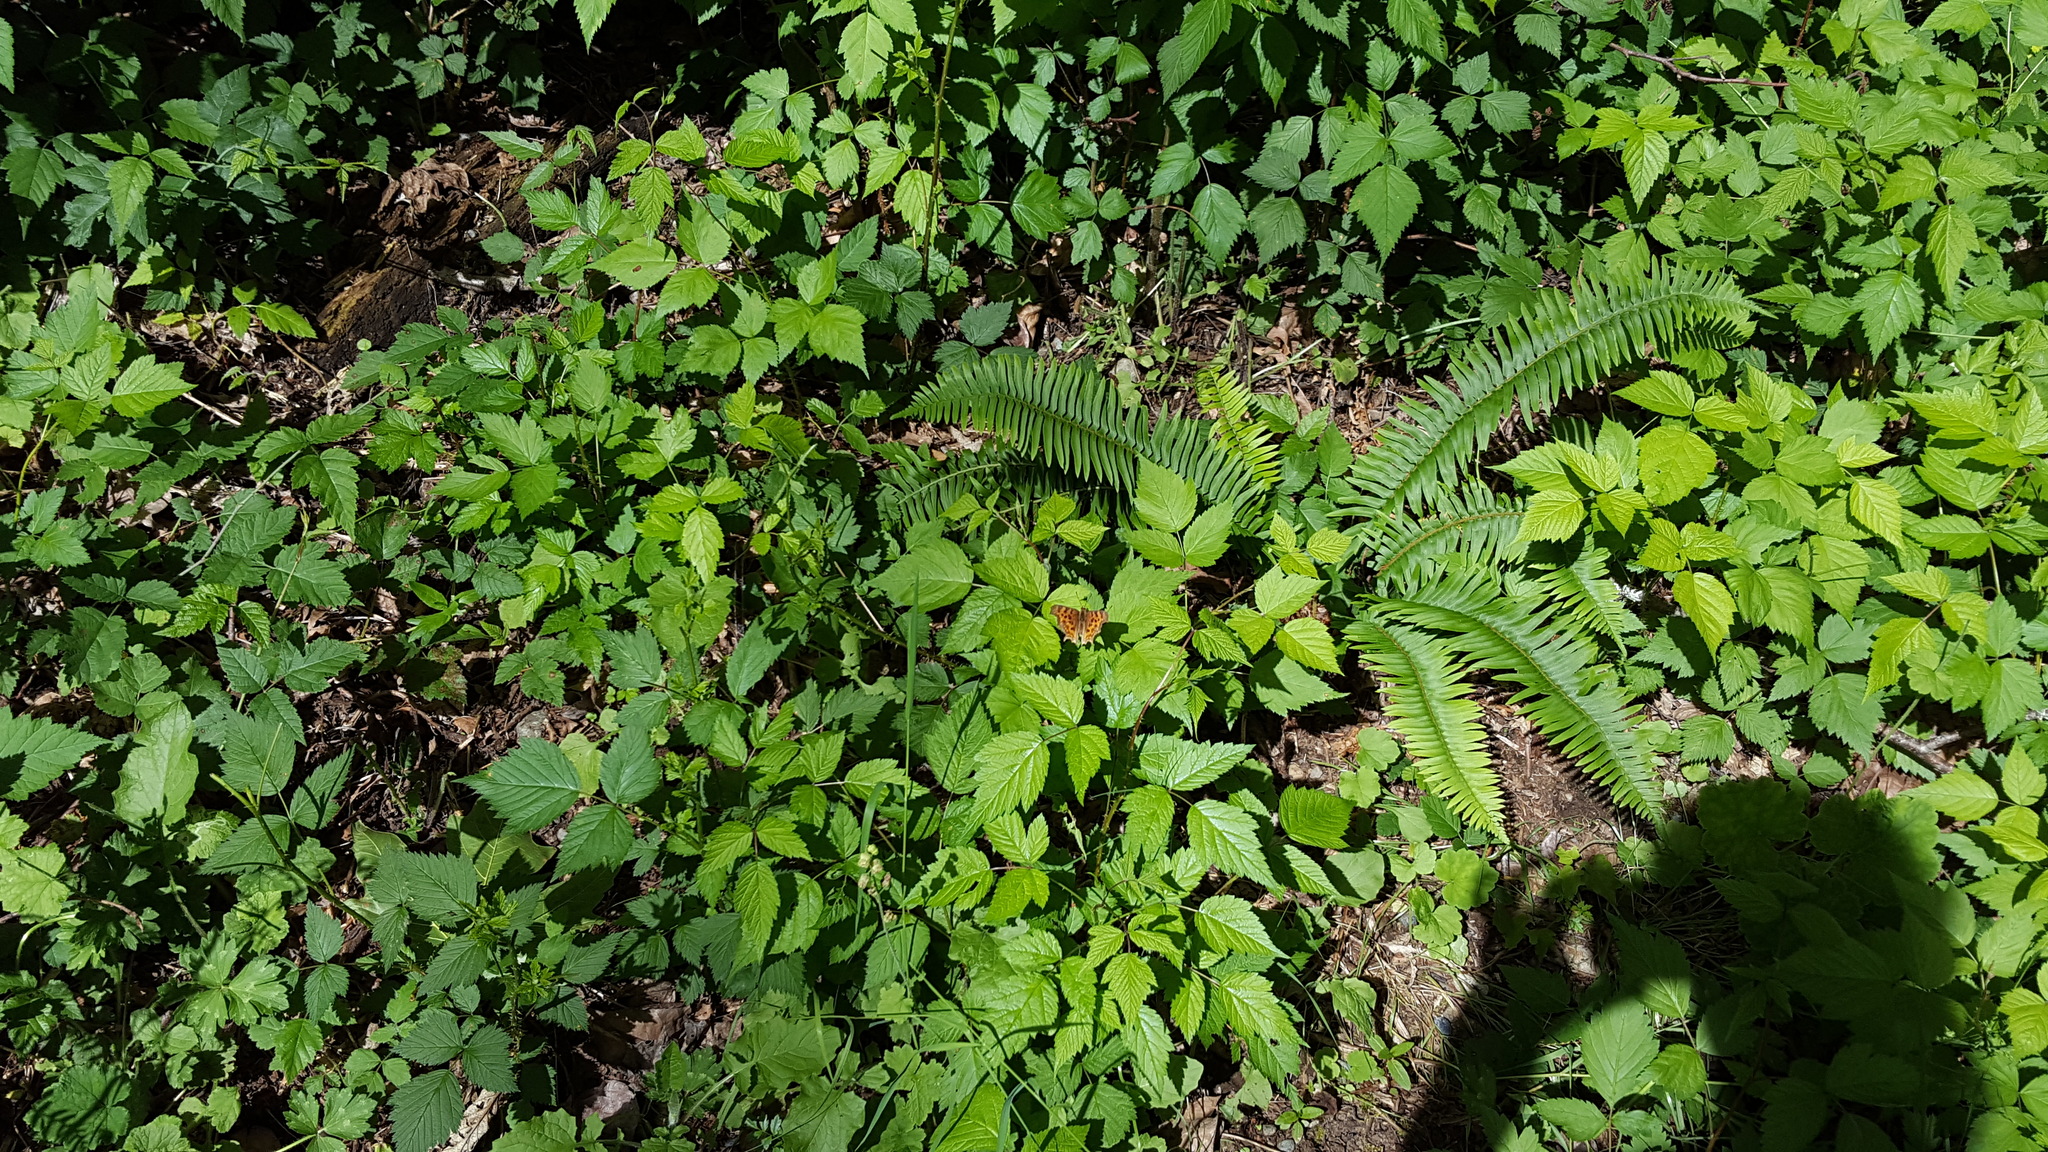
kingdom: Animalia
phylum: Arthropoda
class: Insecta
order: Lepidoptera
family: Nymphalidae
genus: Polygonia
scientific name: Polygonia satyrus
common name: Satyr angle wing
